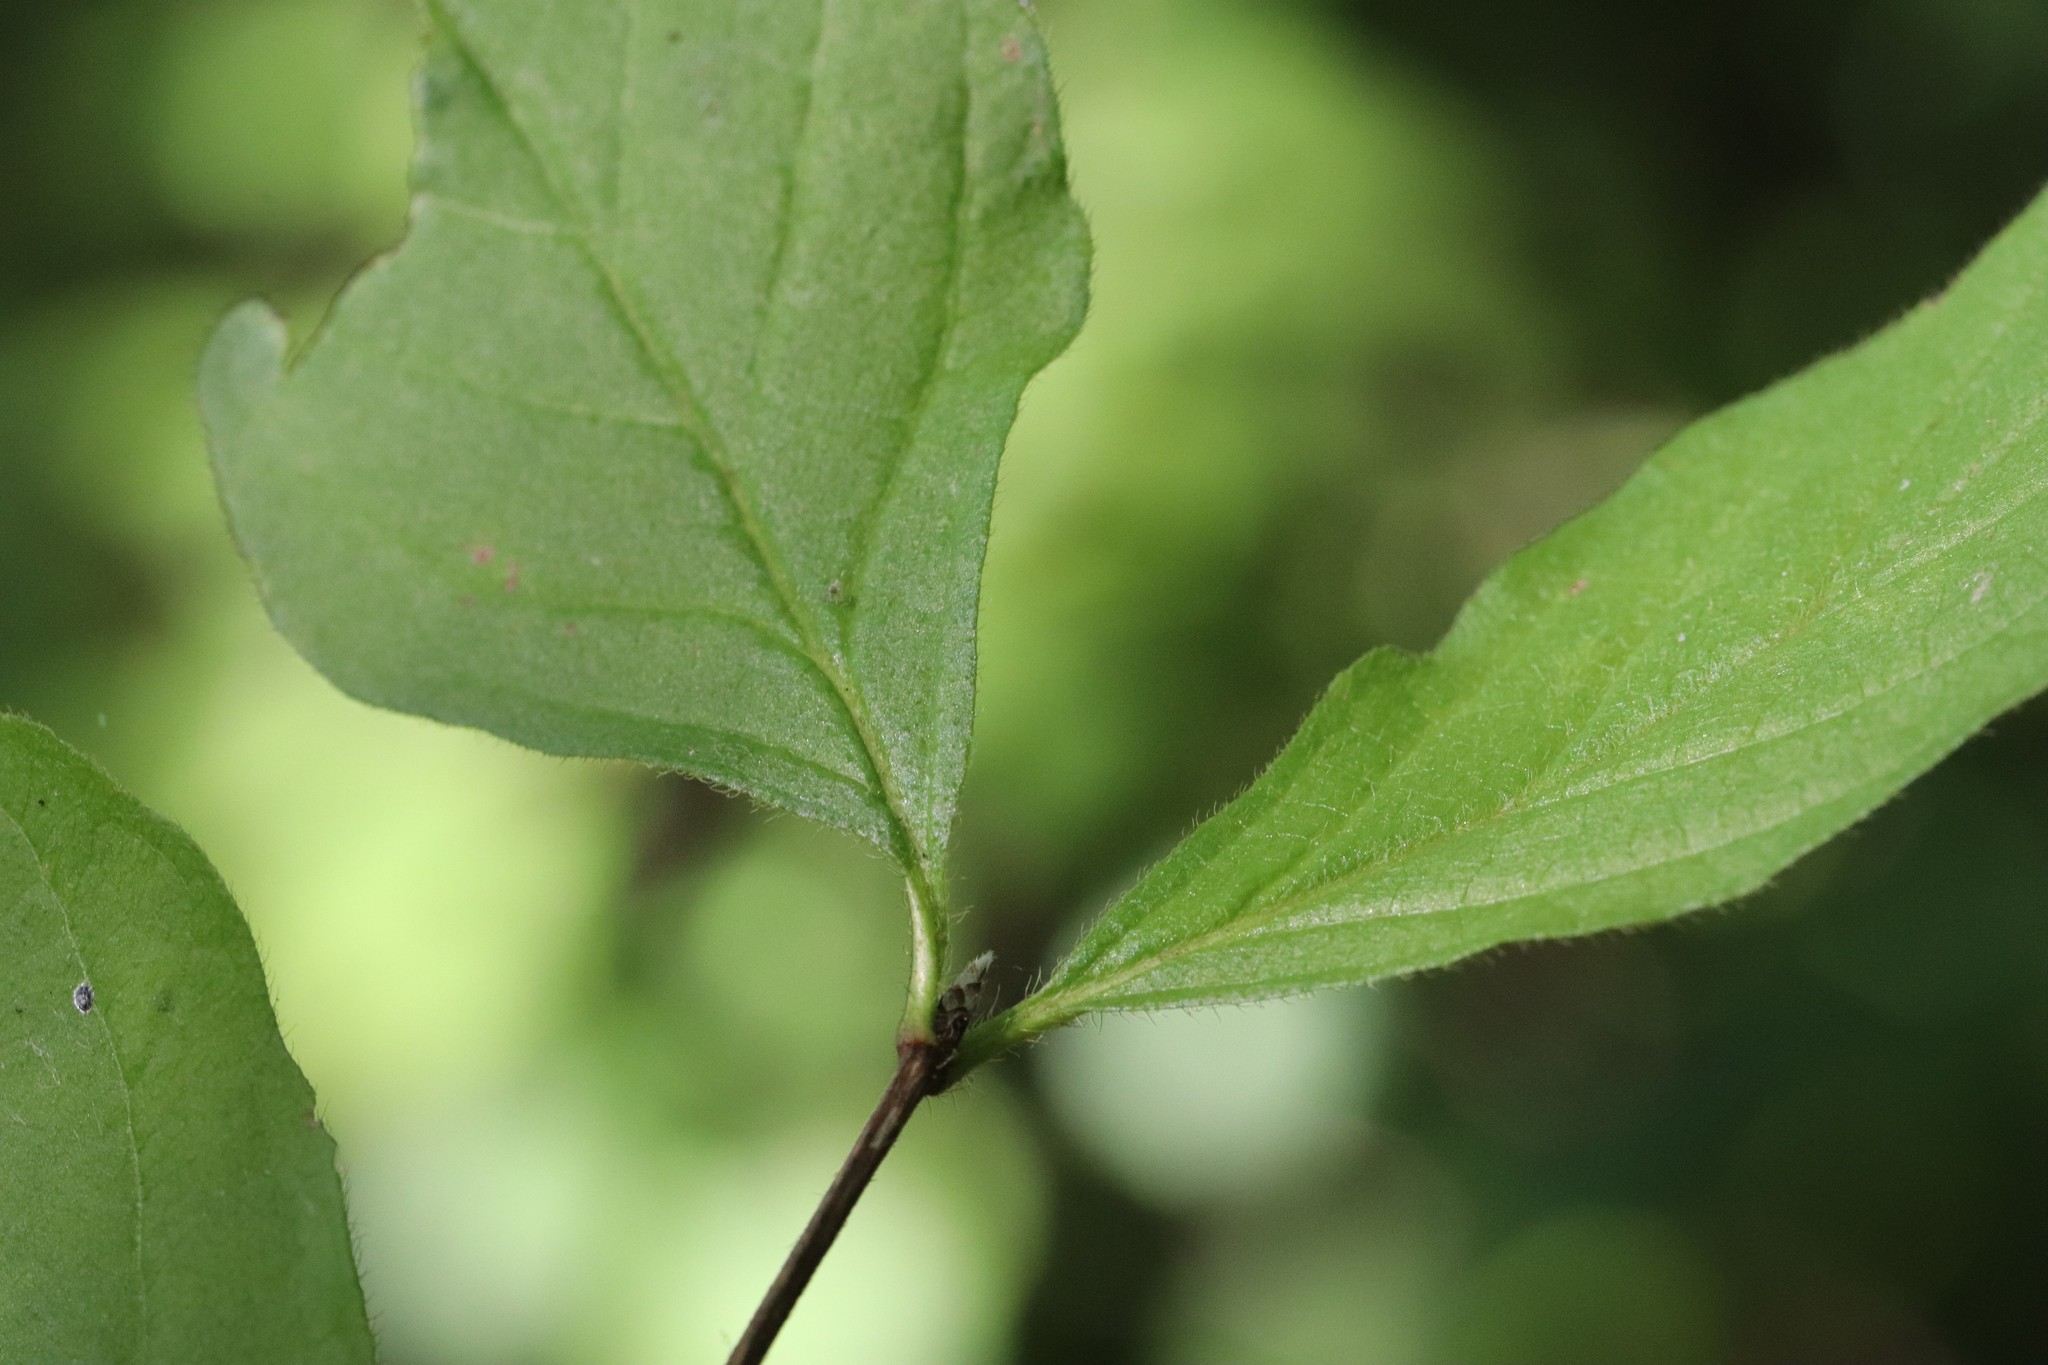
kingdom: Plantae
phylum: Tracheophyta
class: Magnoliopsida
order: Dipsacales
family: Caprifoliaceae
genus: Lonicera
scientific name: Lonicera chrysantha
